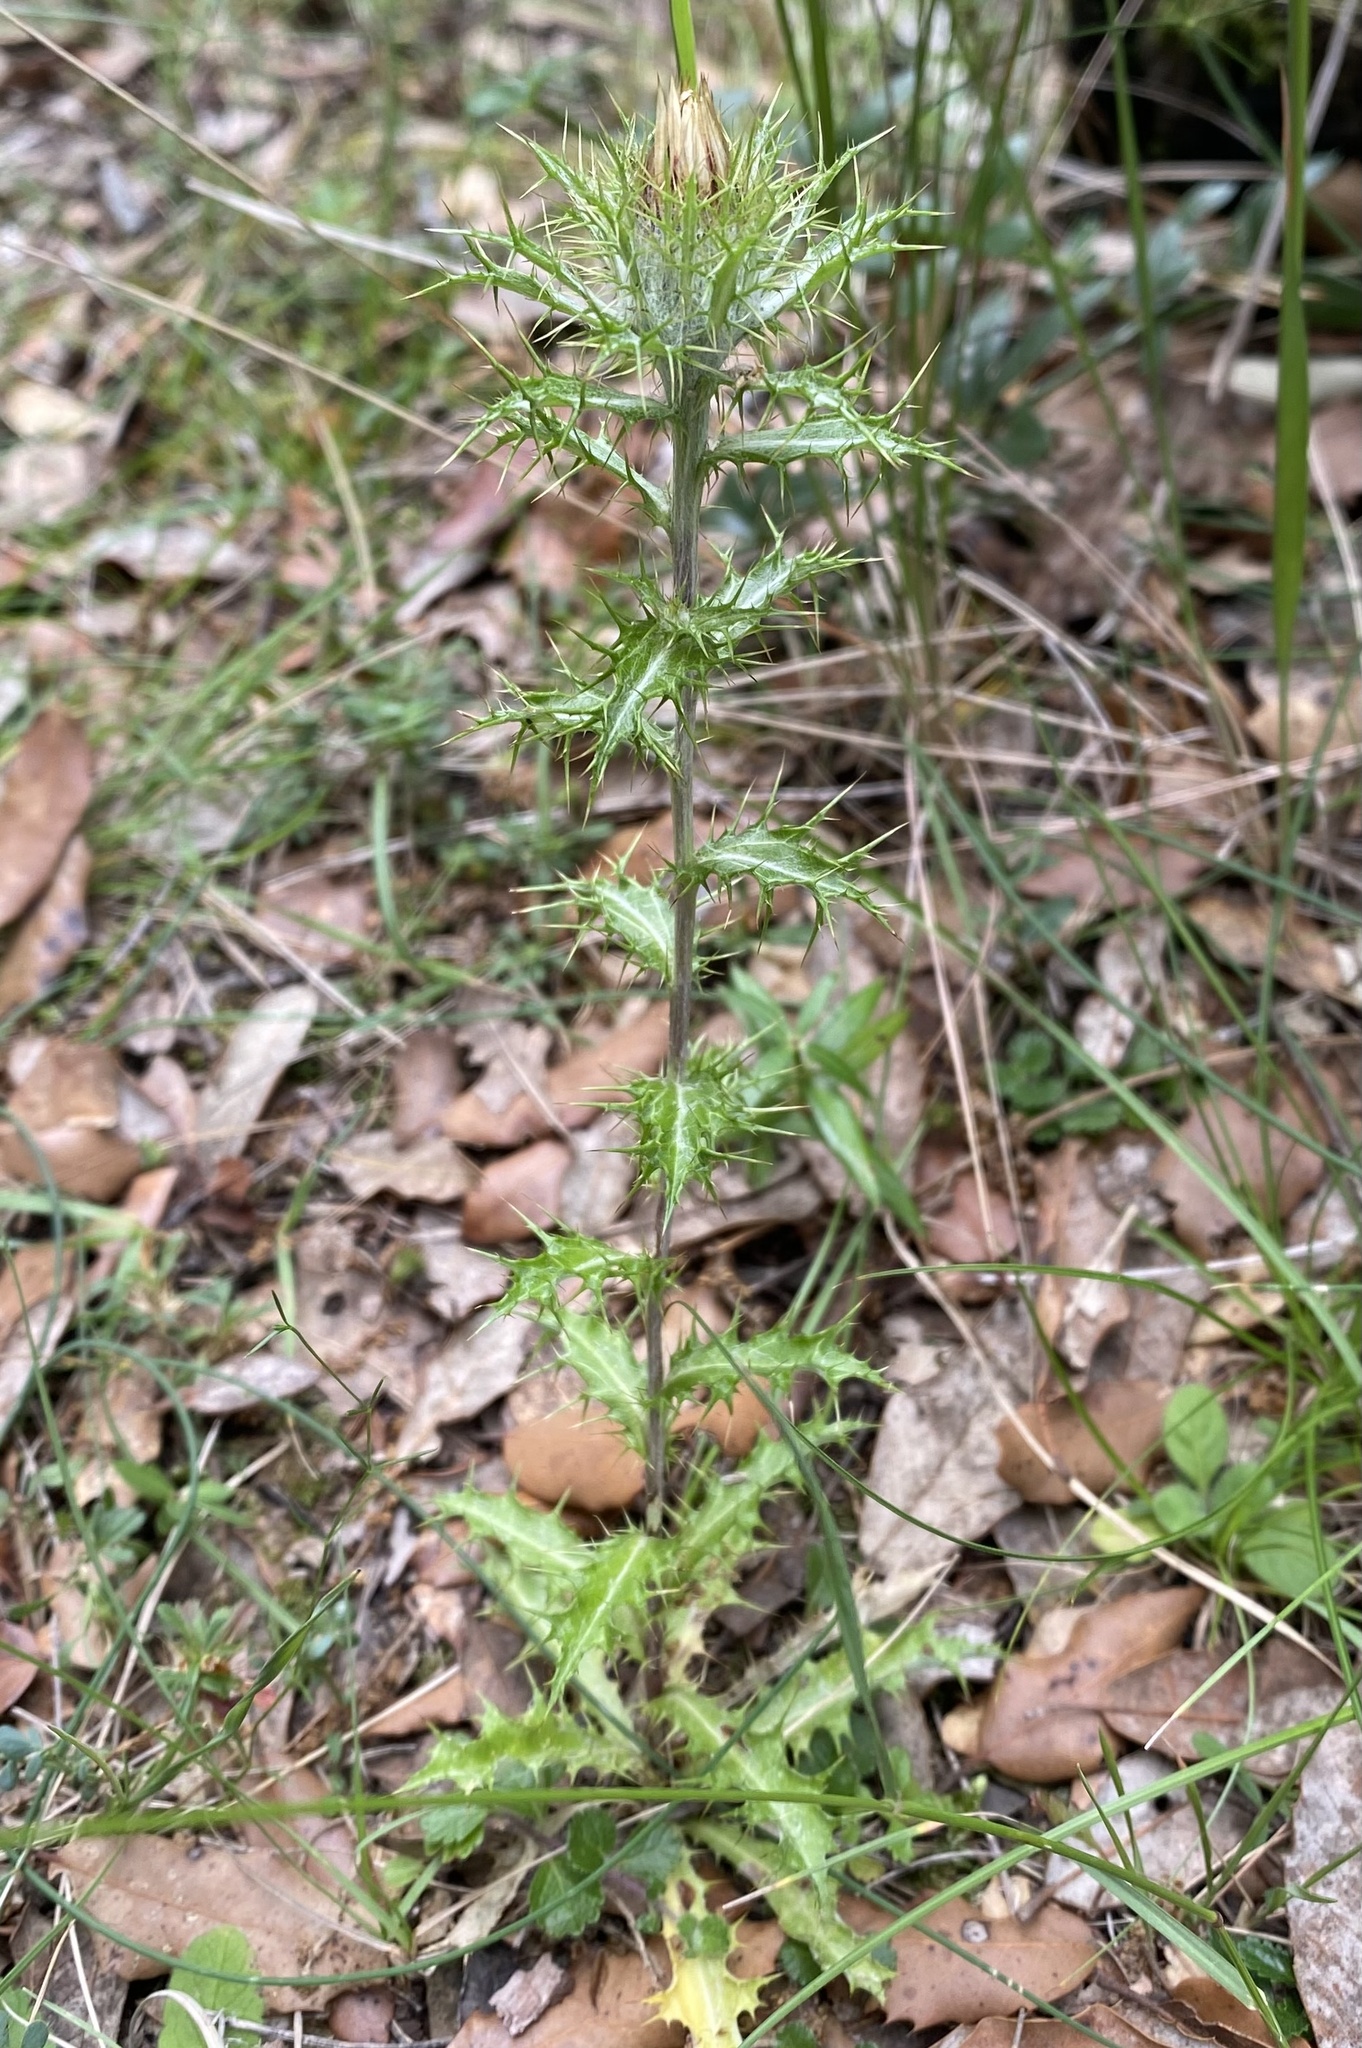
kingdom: Plantae
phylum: Tracheophyta
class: Magnoliopsida
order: Asterales
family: Asteraceae
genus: Carlina
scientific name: Carlina vulgaris
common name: Carline thistle
